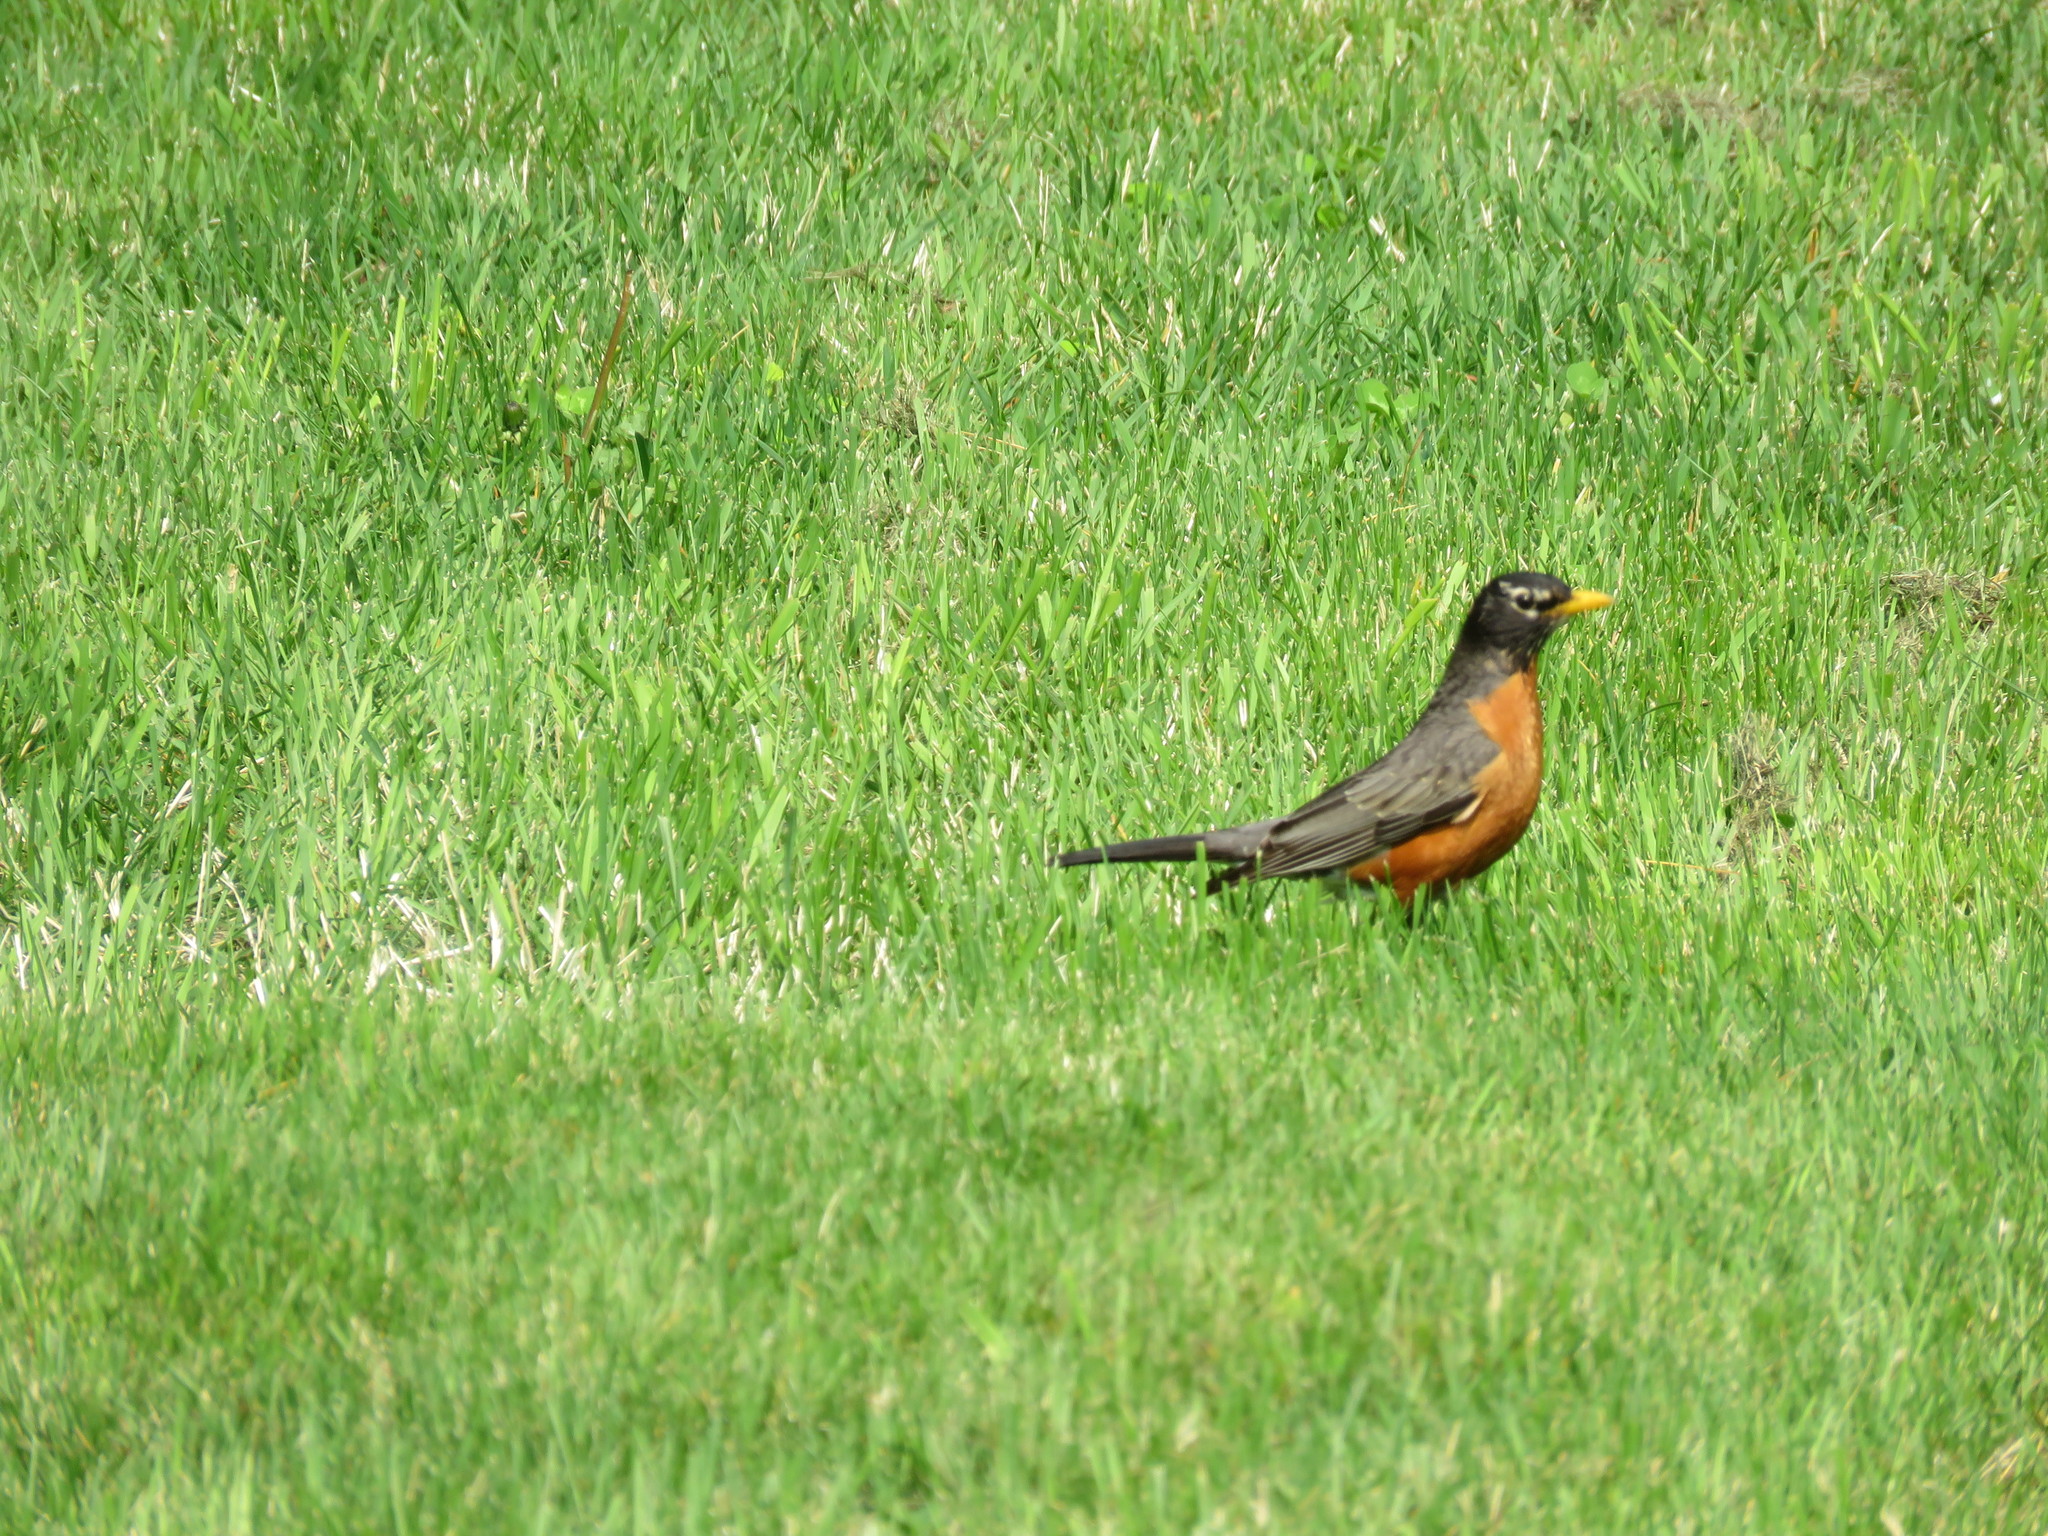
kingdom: Animalia
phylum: Chordata
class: Aves
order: Passeriformes
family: Turdidae
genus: Turdus
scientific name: Turdus migratorius
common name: American robin
